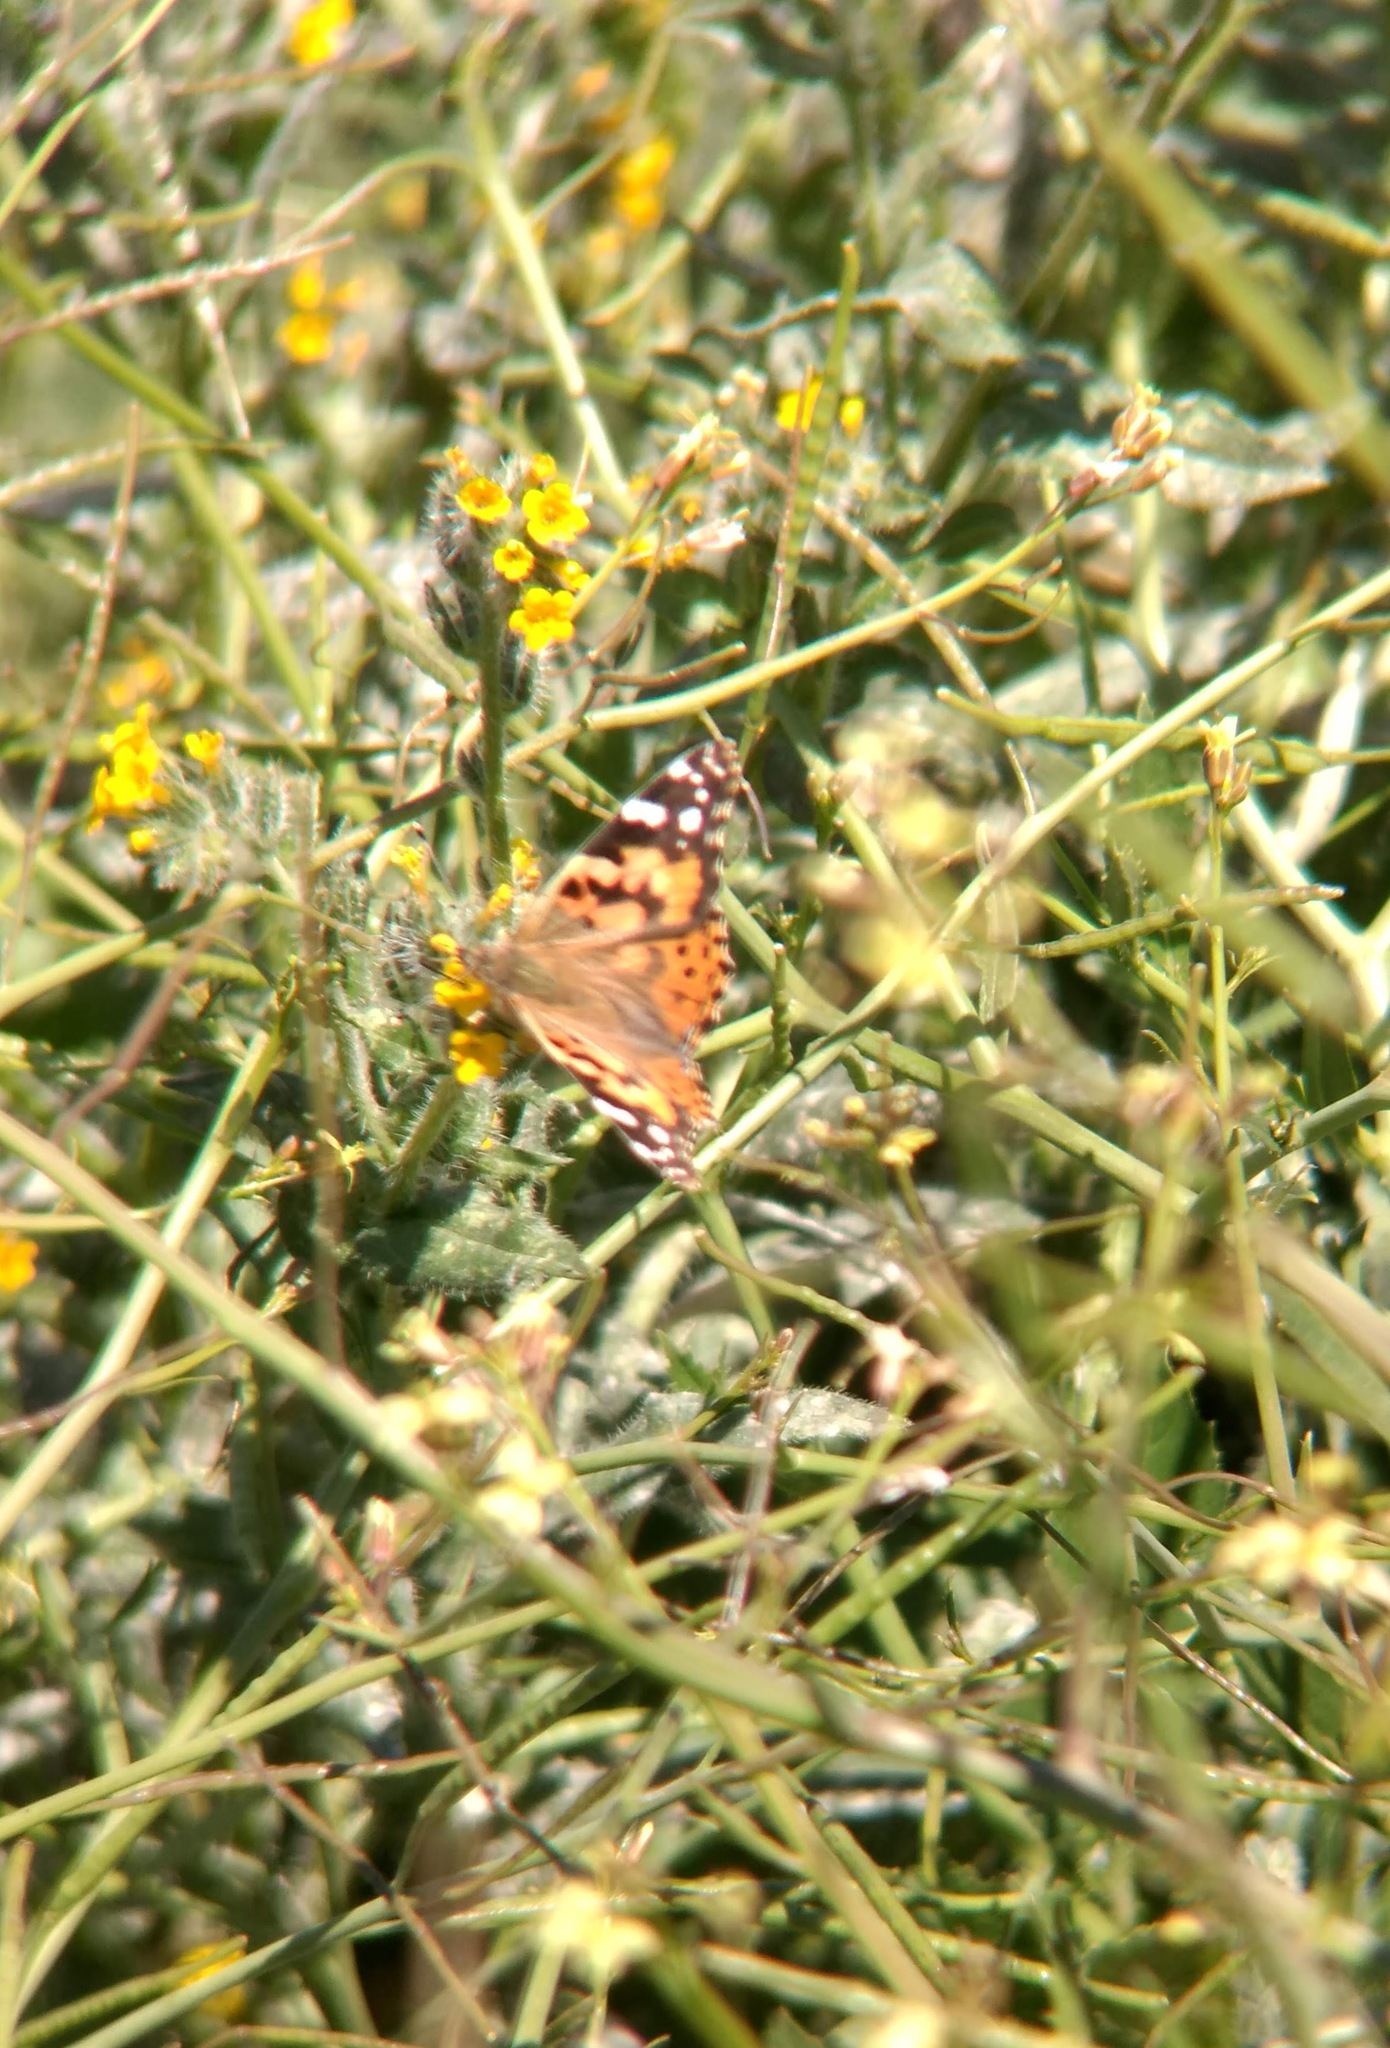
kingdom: Animalia
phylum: Arthropoda
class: Insecta
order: Lepidoptera
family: Nymphalidae
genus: Vanessa
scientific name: Vanessa cardui
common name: Painted lady
